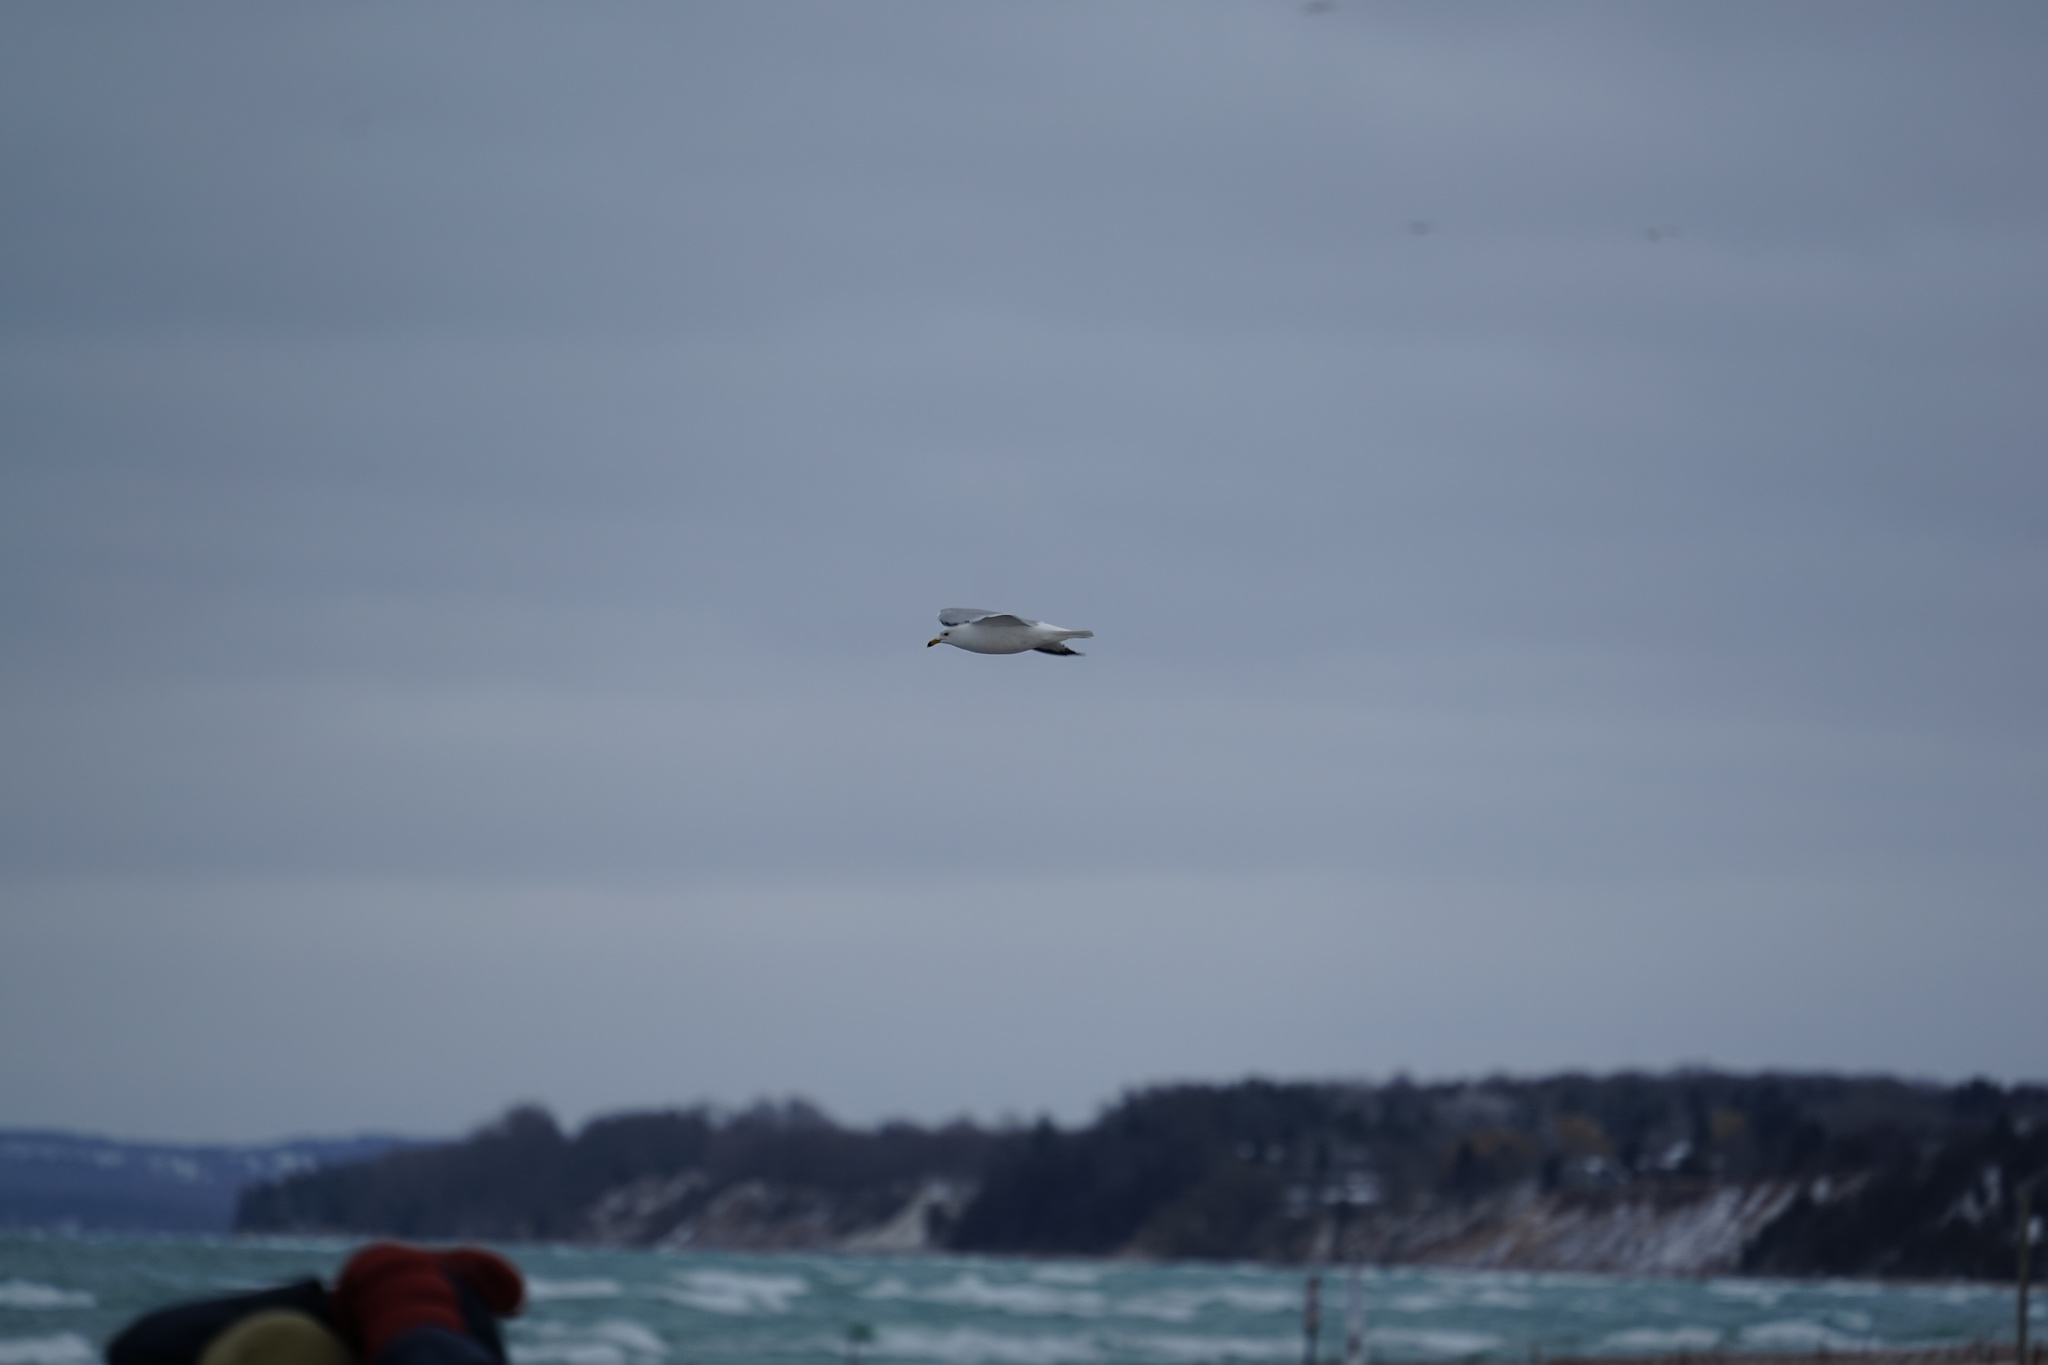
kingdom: Animalia
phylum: Chordata
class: Aves
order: Charadriiformes
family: Laridae
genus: Larus
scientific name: Larus delawarensis
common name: Ring-billed gull
